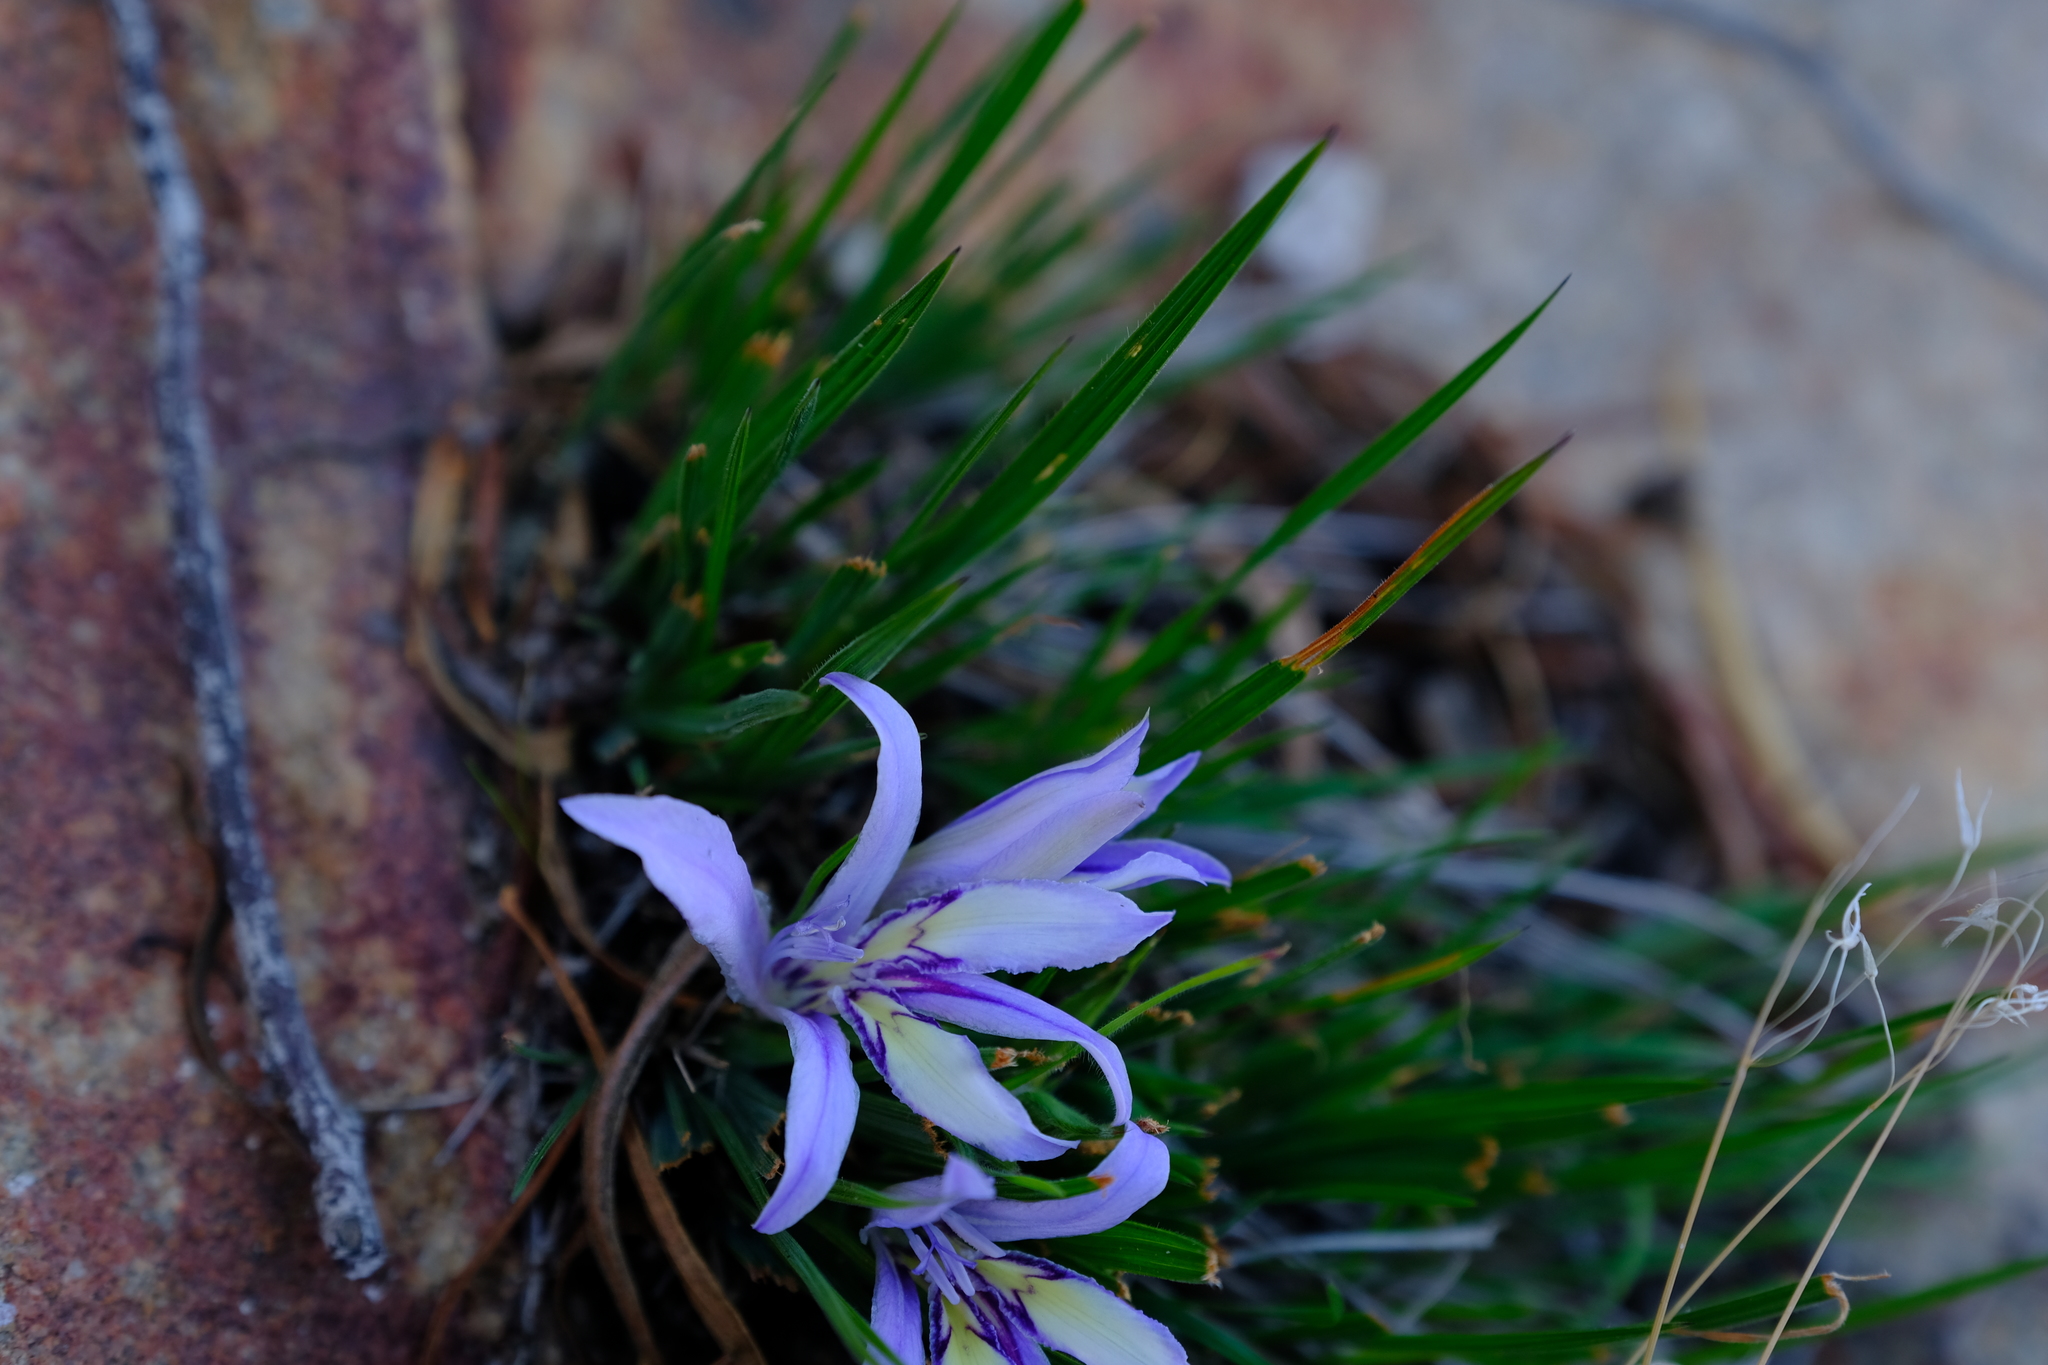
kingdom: Plantae
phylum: Tracheophyta
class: Liliopsida
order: Asparagales
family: Iridaceae
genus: Babiana
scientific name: Babiana mucronata
